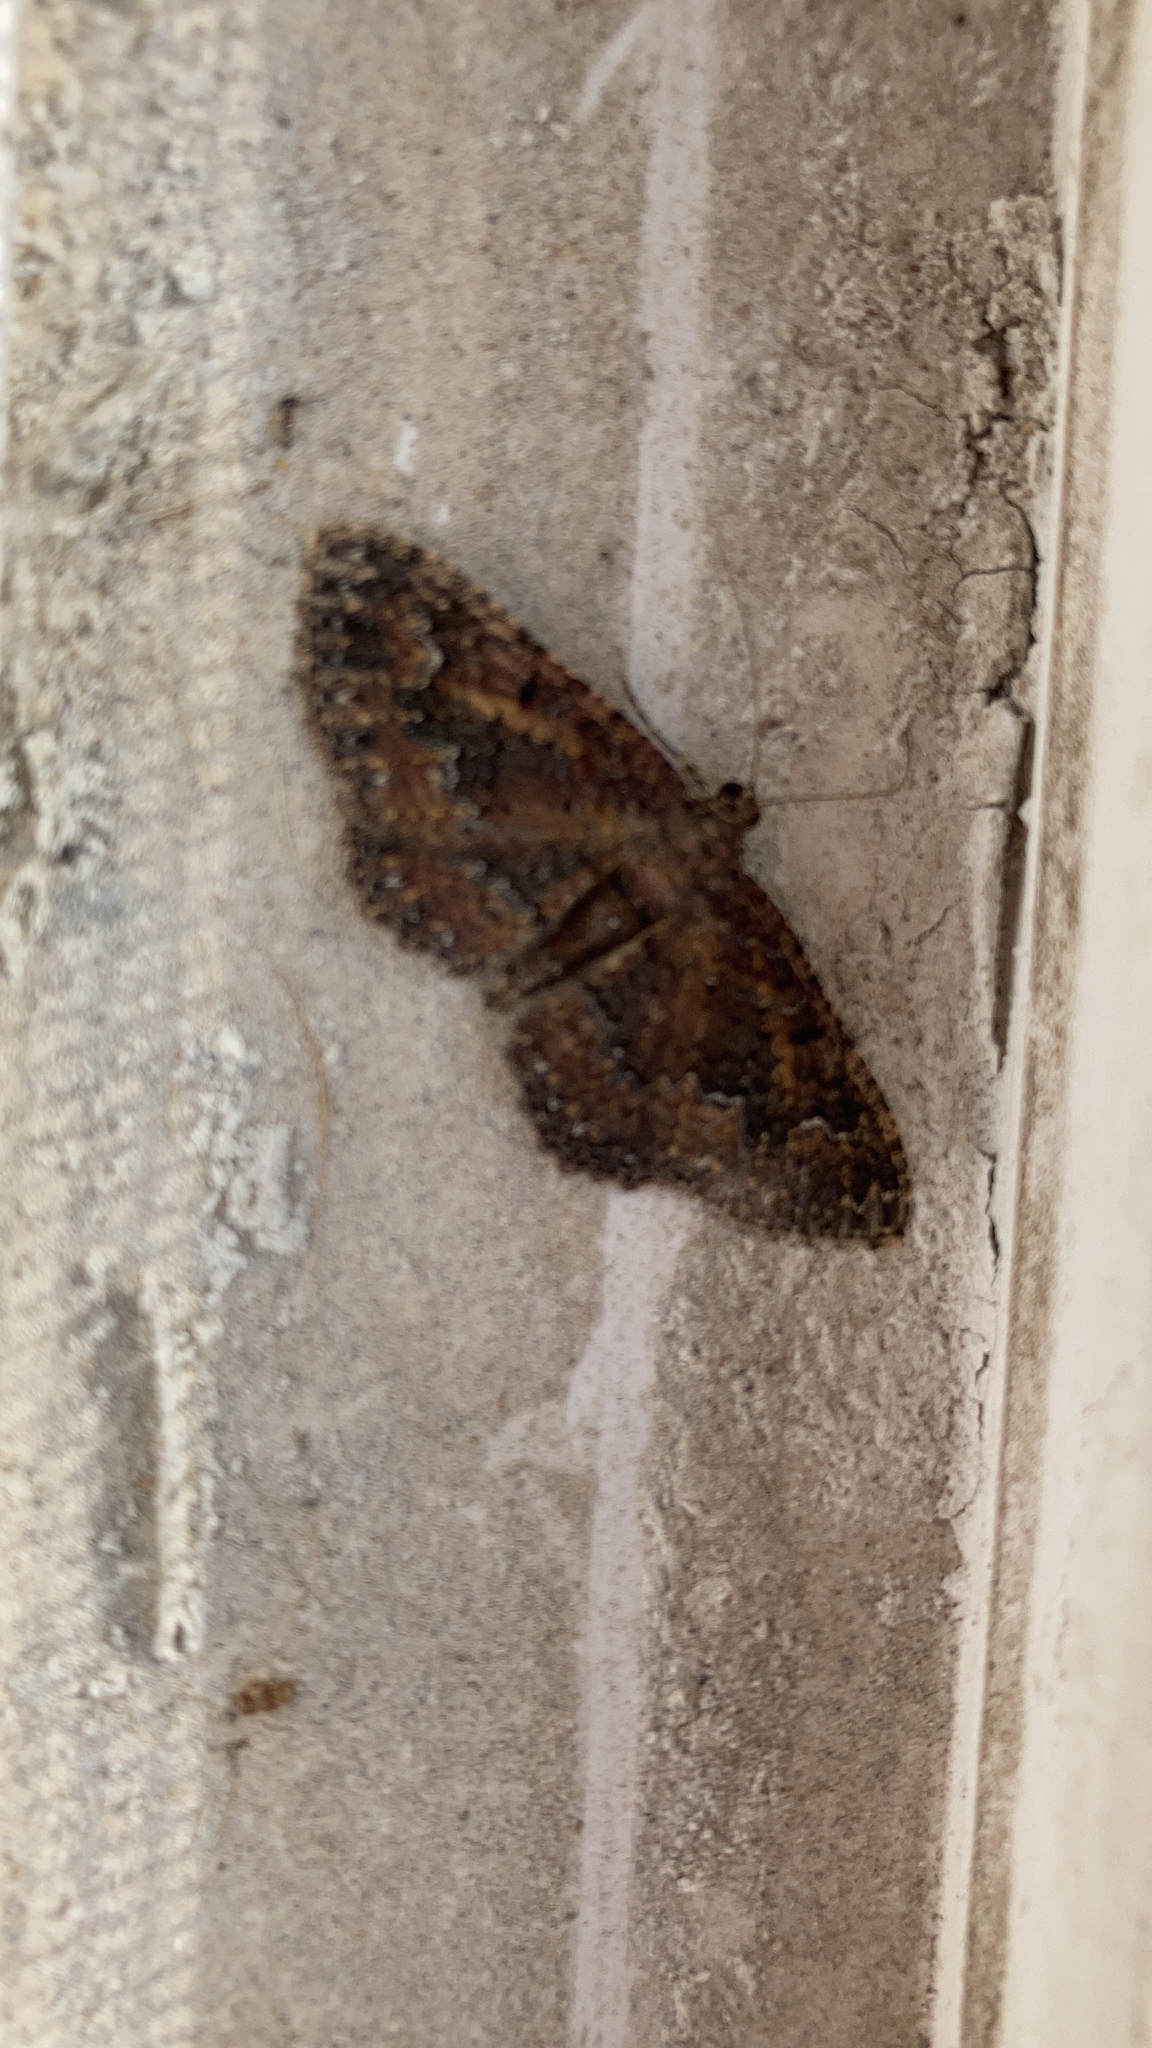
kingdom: Animalia
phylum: Arthropoda
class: Insecta
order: Lepidoptera
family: Geometridae
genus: Disclisioprocta
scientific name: Disclisioprocta stellata
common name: Somber carpet
